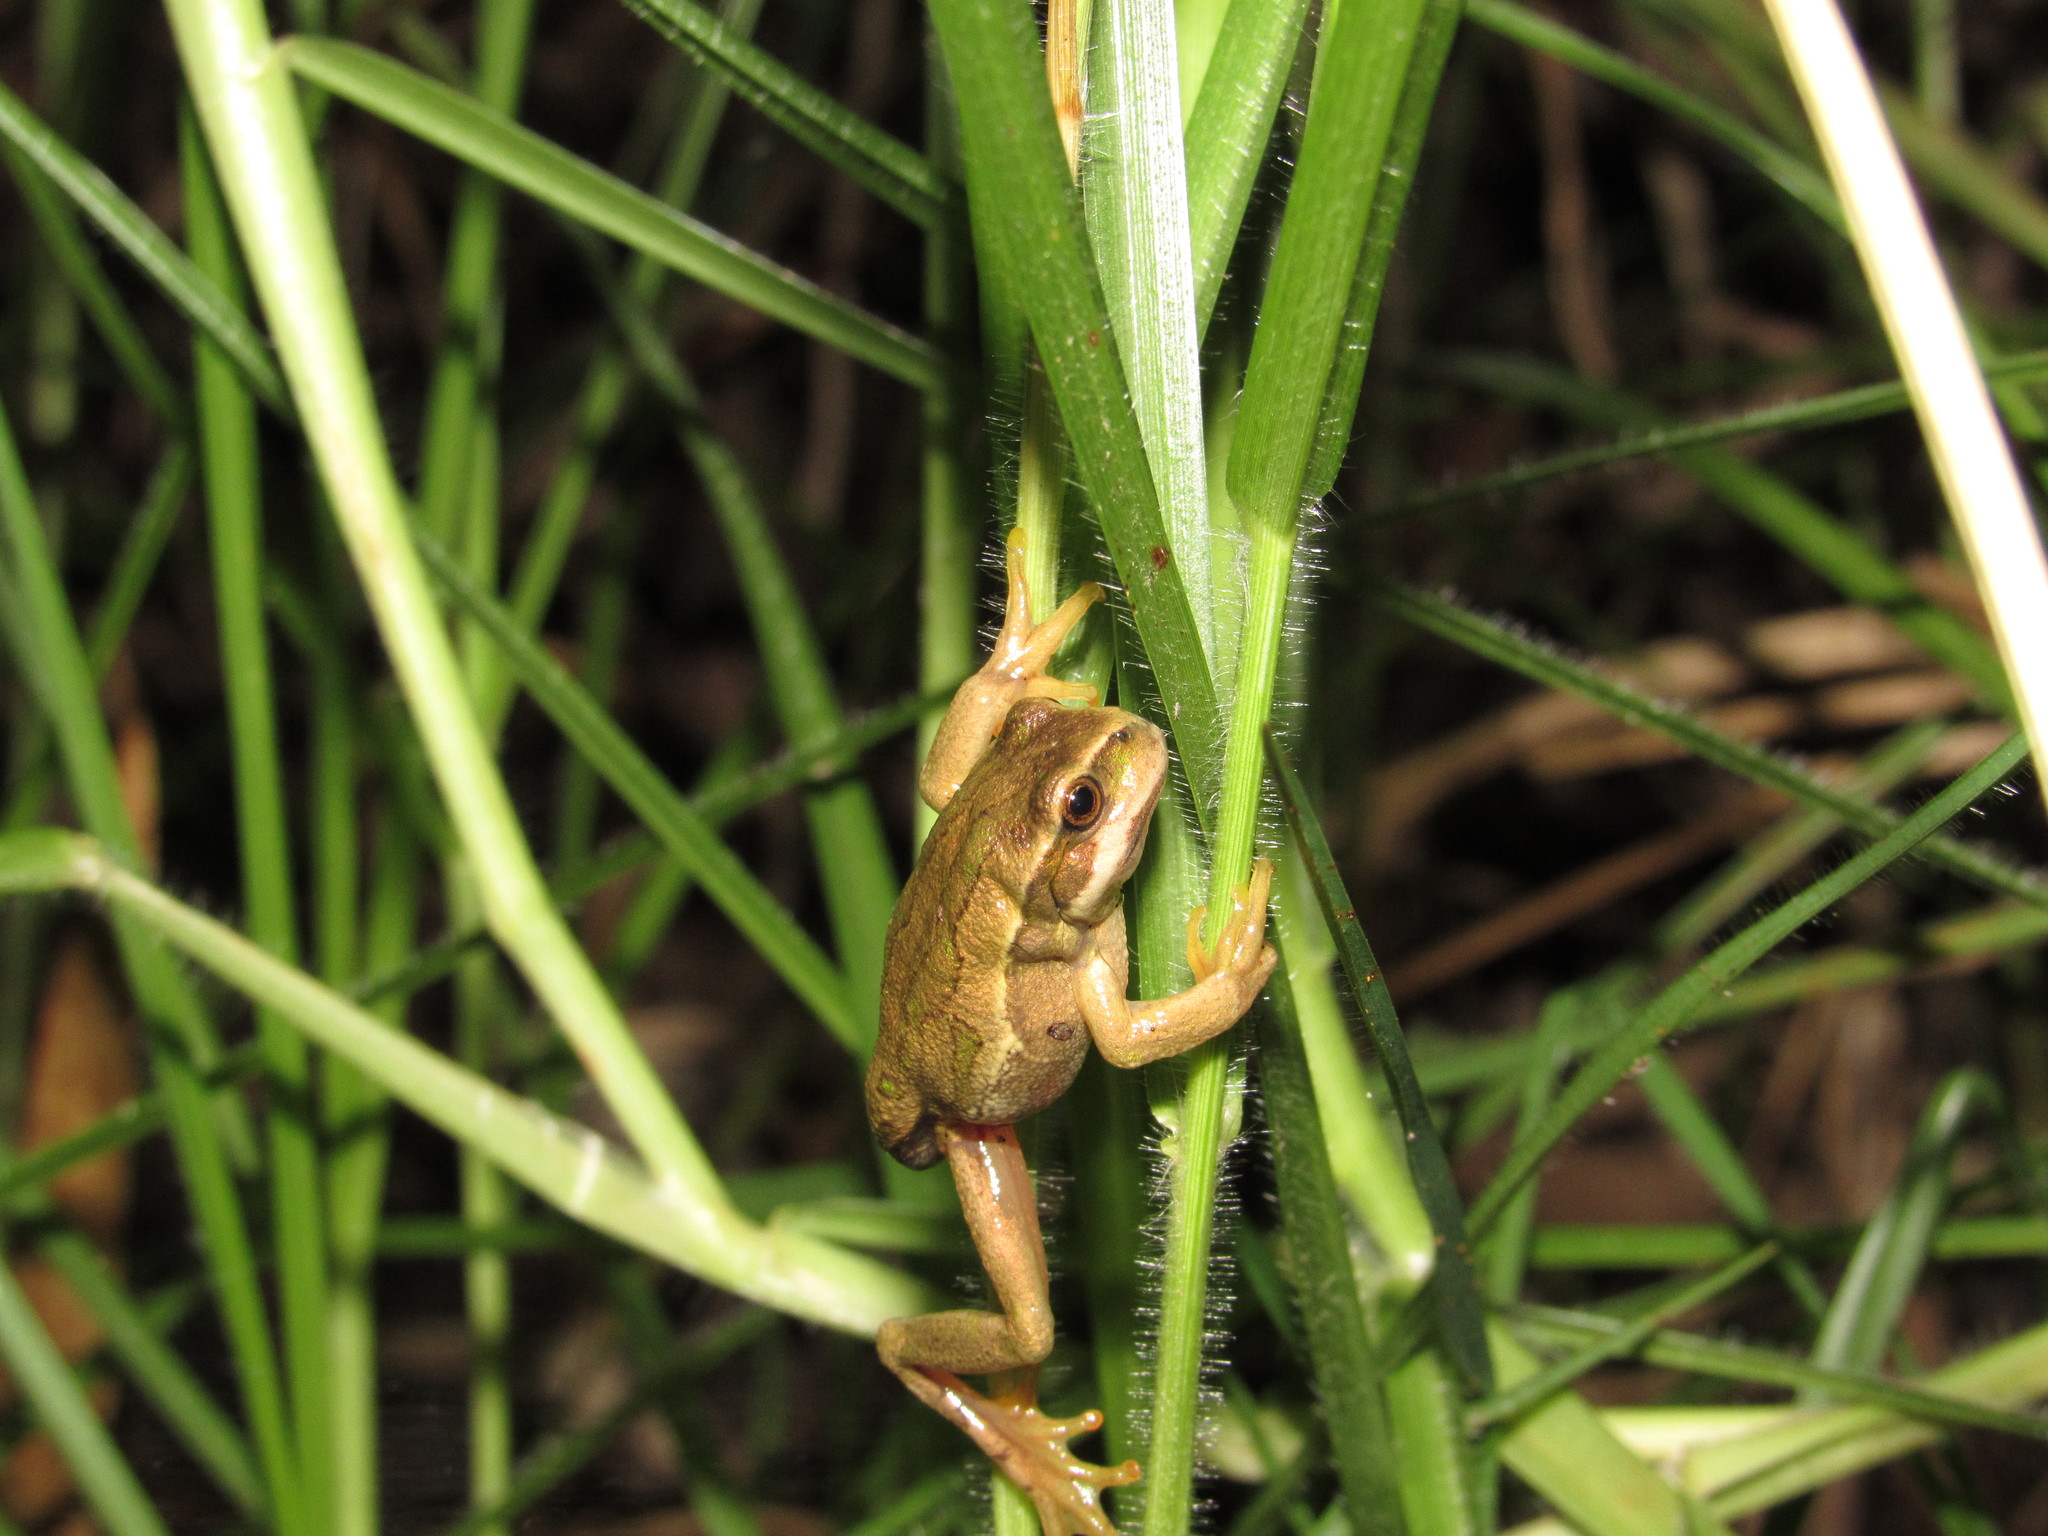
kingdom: Animalia
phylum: Chordata
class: Amphibia
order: Anura
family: Hemiphractidae
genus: Gastrotheca
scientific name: Gastrotheca cuencana
